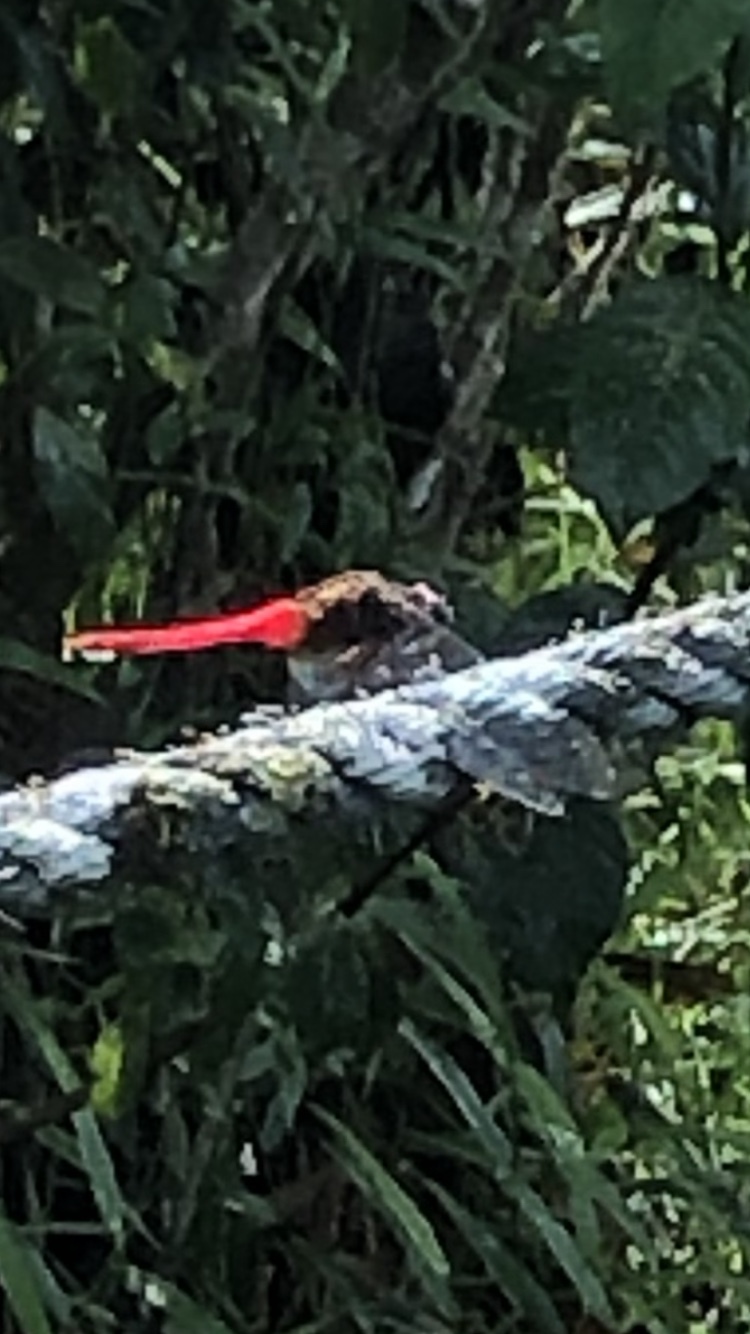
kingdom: Animalia
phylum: Arthropoda
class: Insecta
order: Odonata
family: Libellulidae
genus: Orthetrum
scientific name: Orthetrum chrysis
